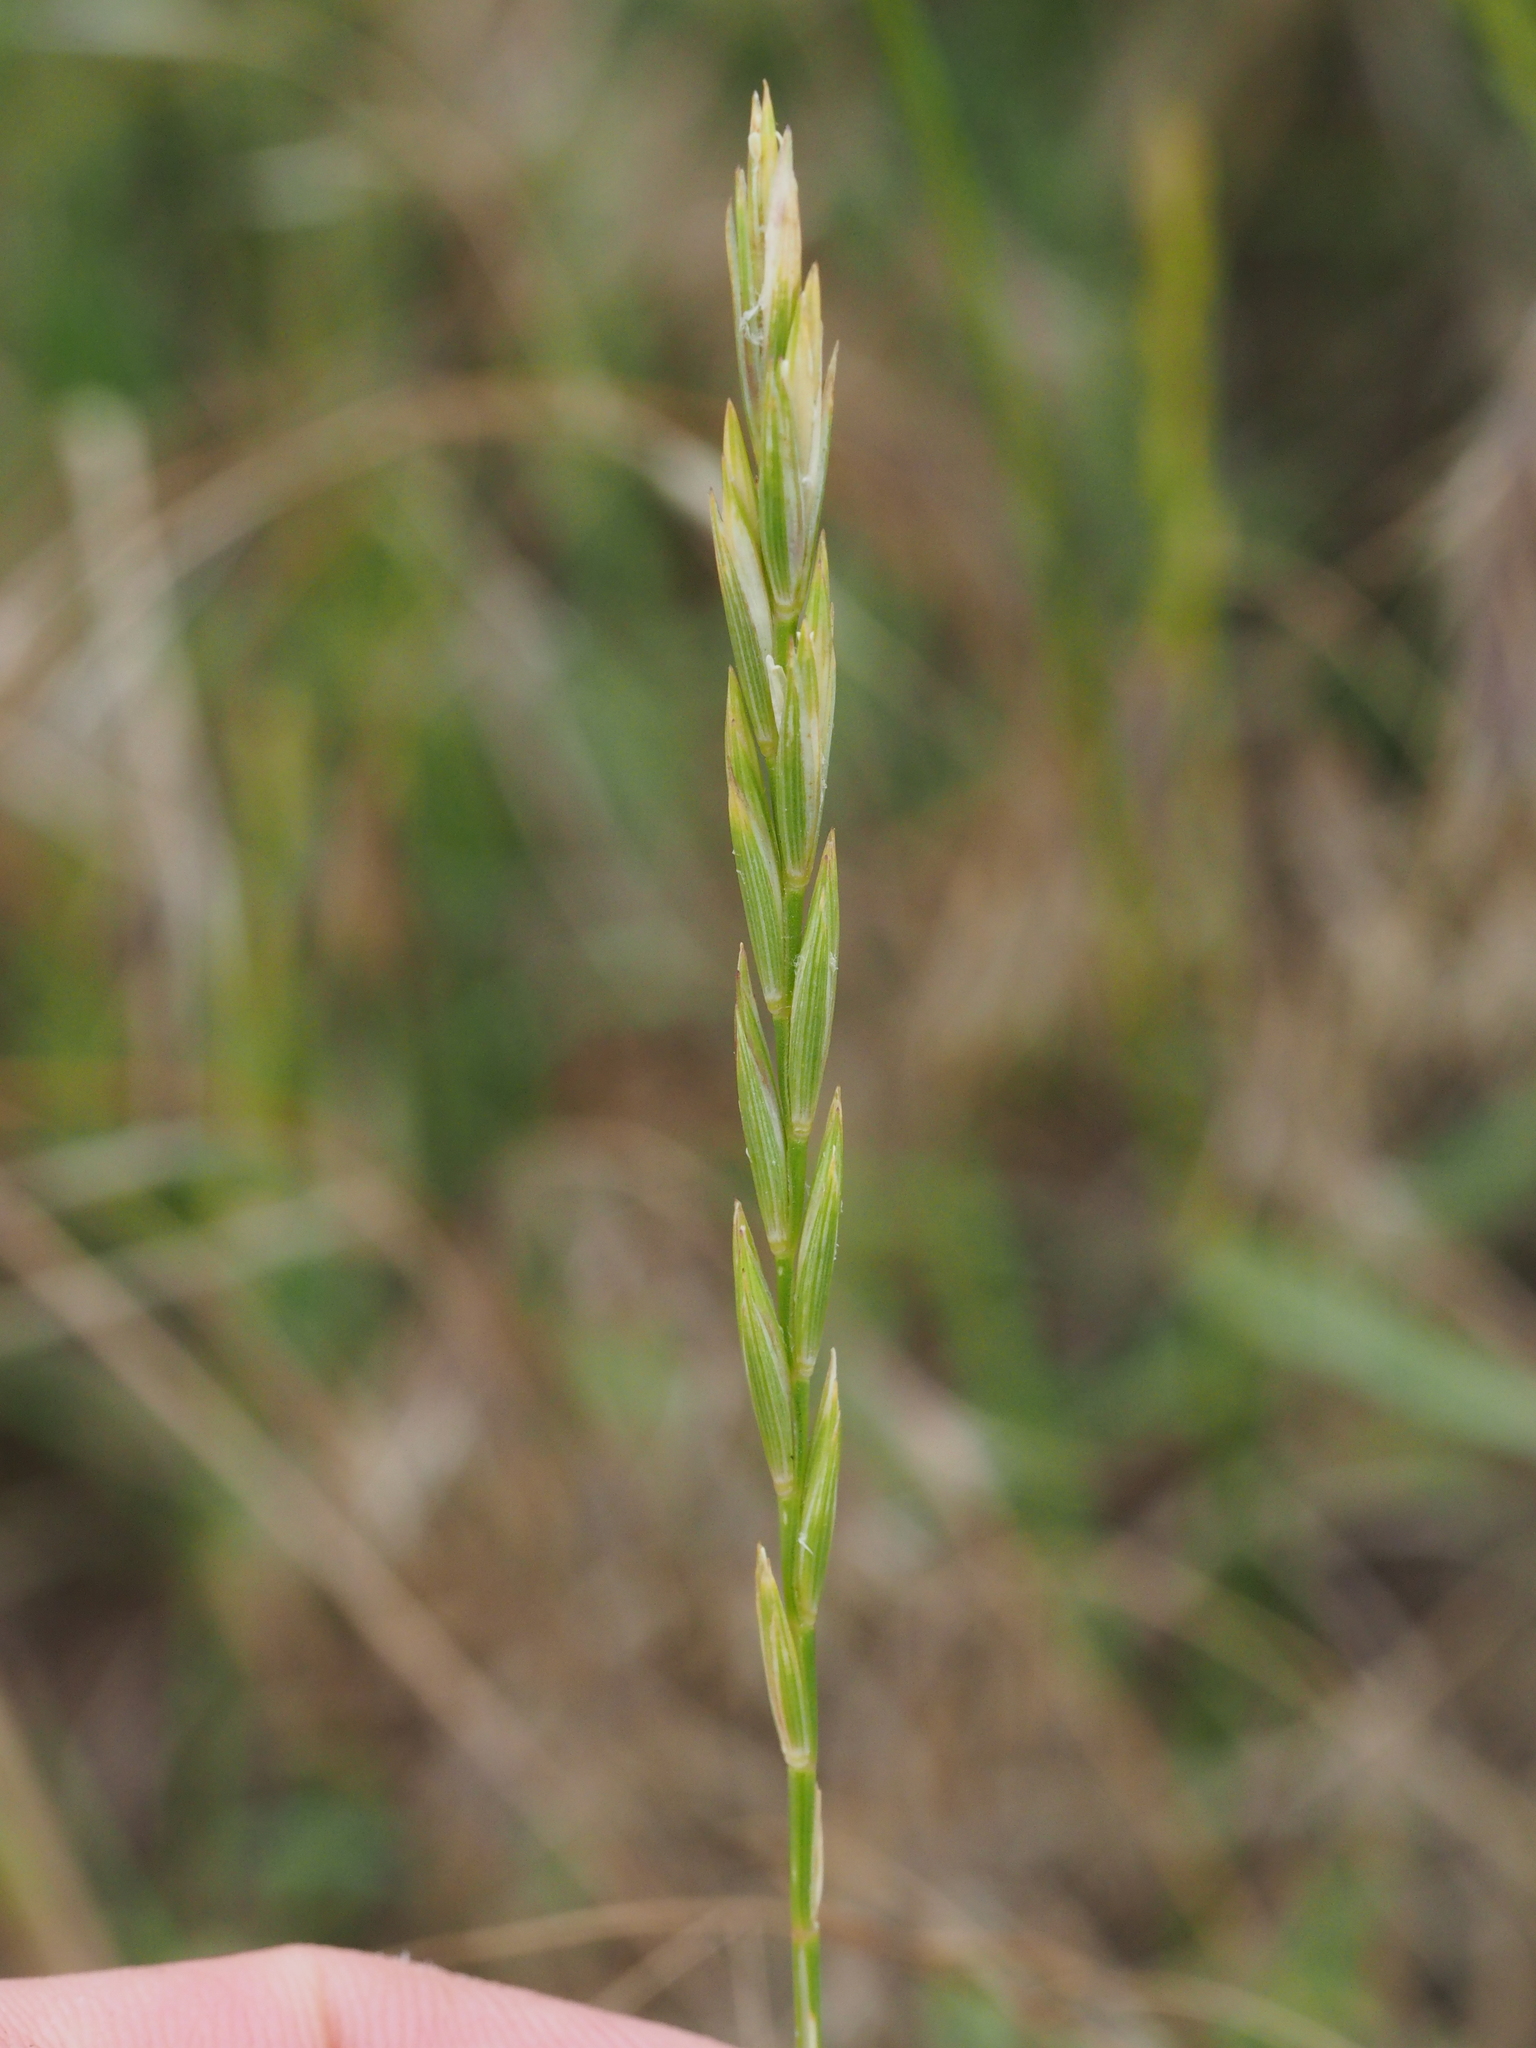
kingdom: Plantae
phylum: Tracheophyta
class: Liliopsida
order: Poales
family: Poaceae
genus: Elymus
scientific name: Elymus repens
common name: Quackgrass
